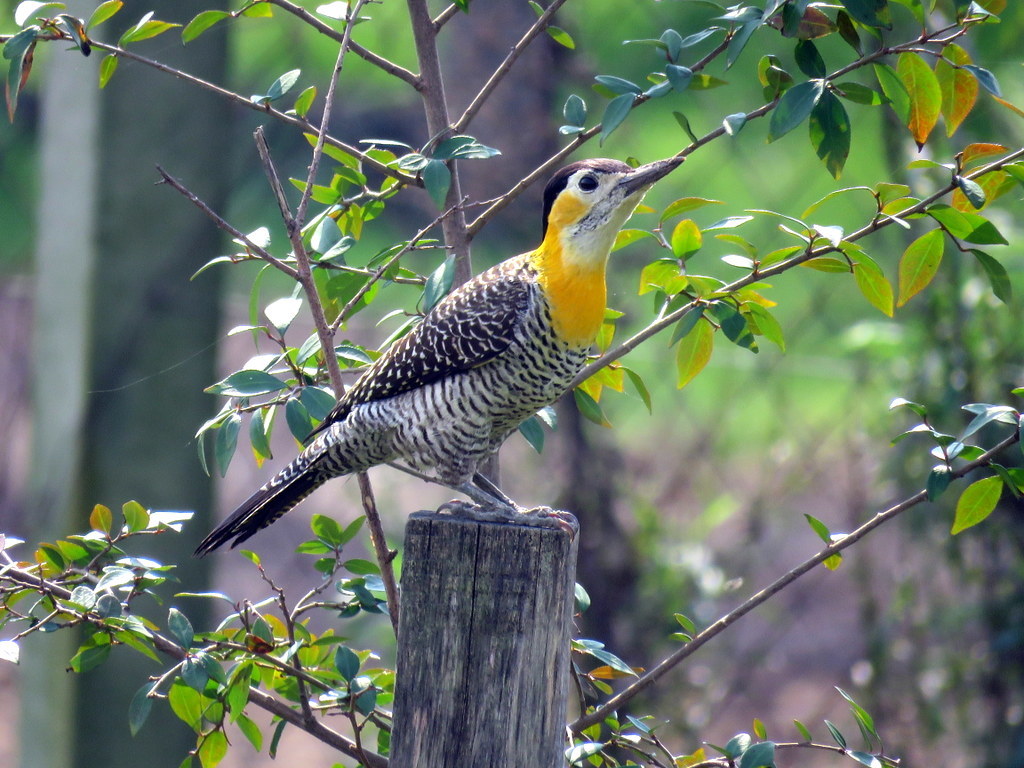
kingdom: Animalia
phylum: Chordata
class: Aves
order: Piciformes
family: Picidae
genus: Colaptes
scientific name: Colaptes campestris
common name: Campo flicker
